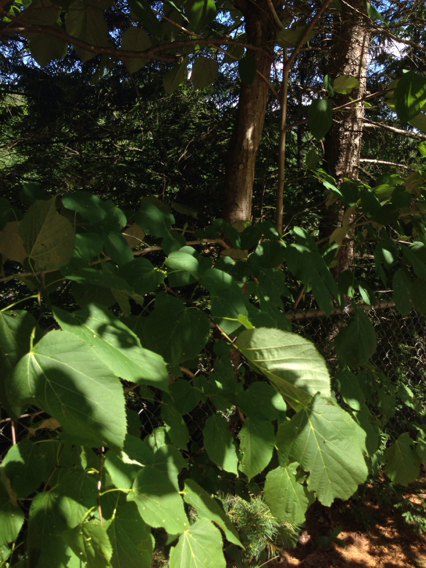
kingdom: Plantae
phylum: Tracheophyta
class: Magnoliopsida
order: Malvales
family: Malvaceae
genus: Tilia
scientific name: Tilia americana
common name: Basswood
